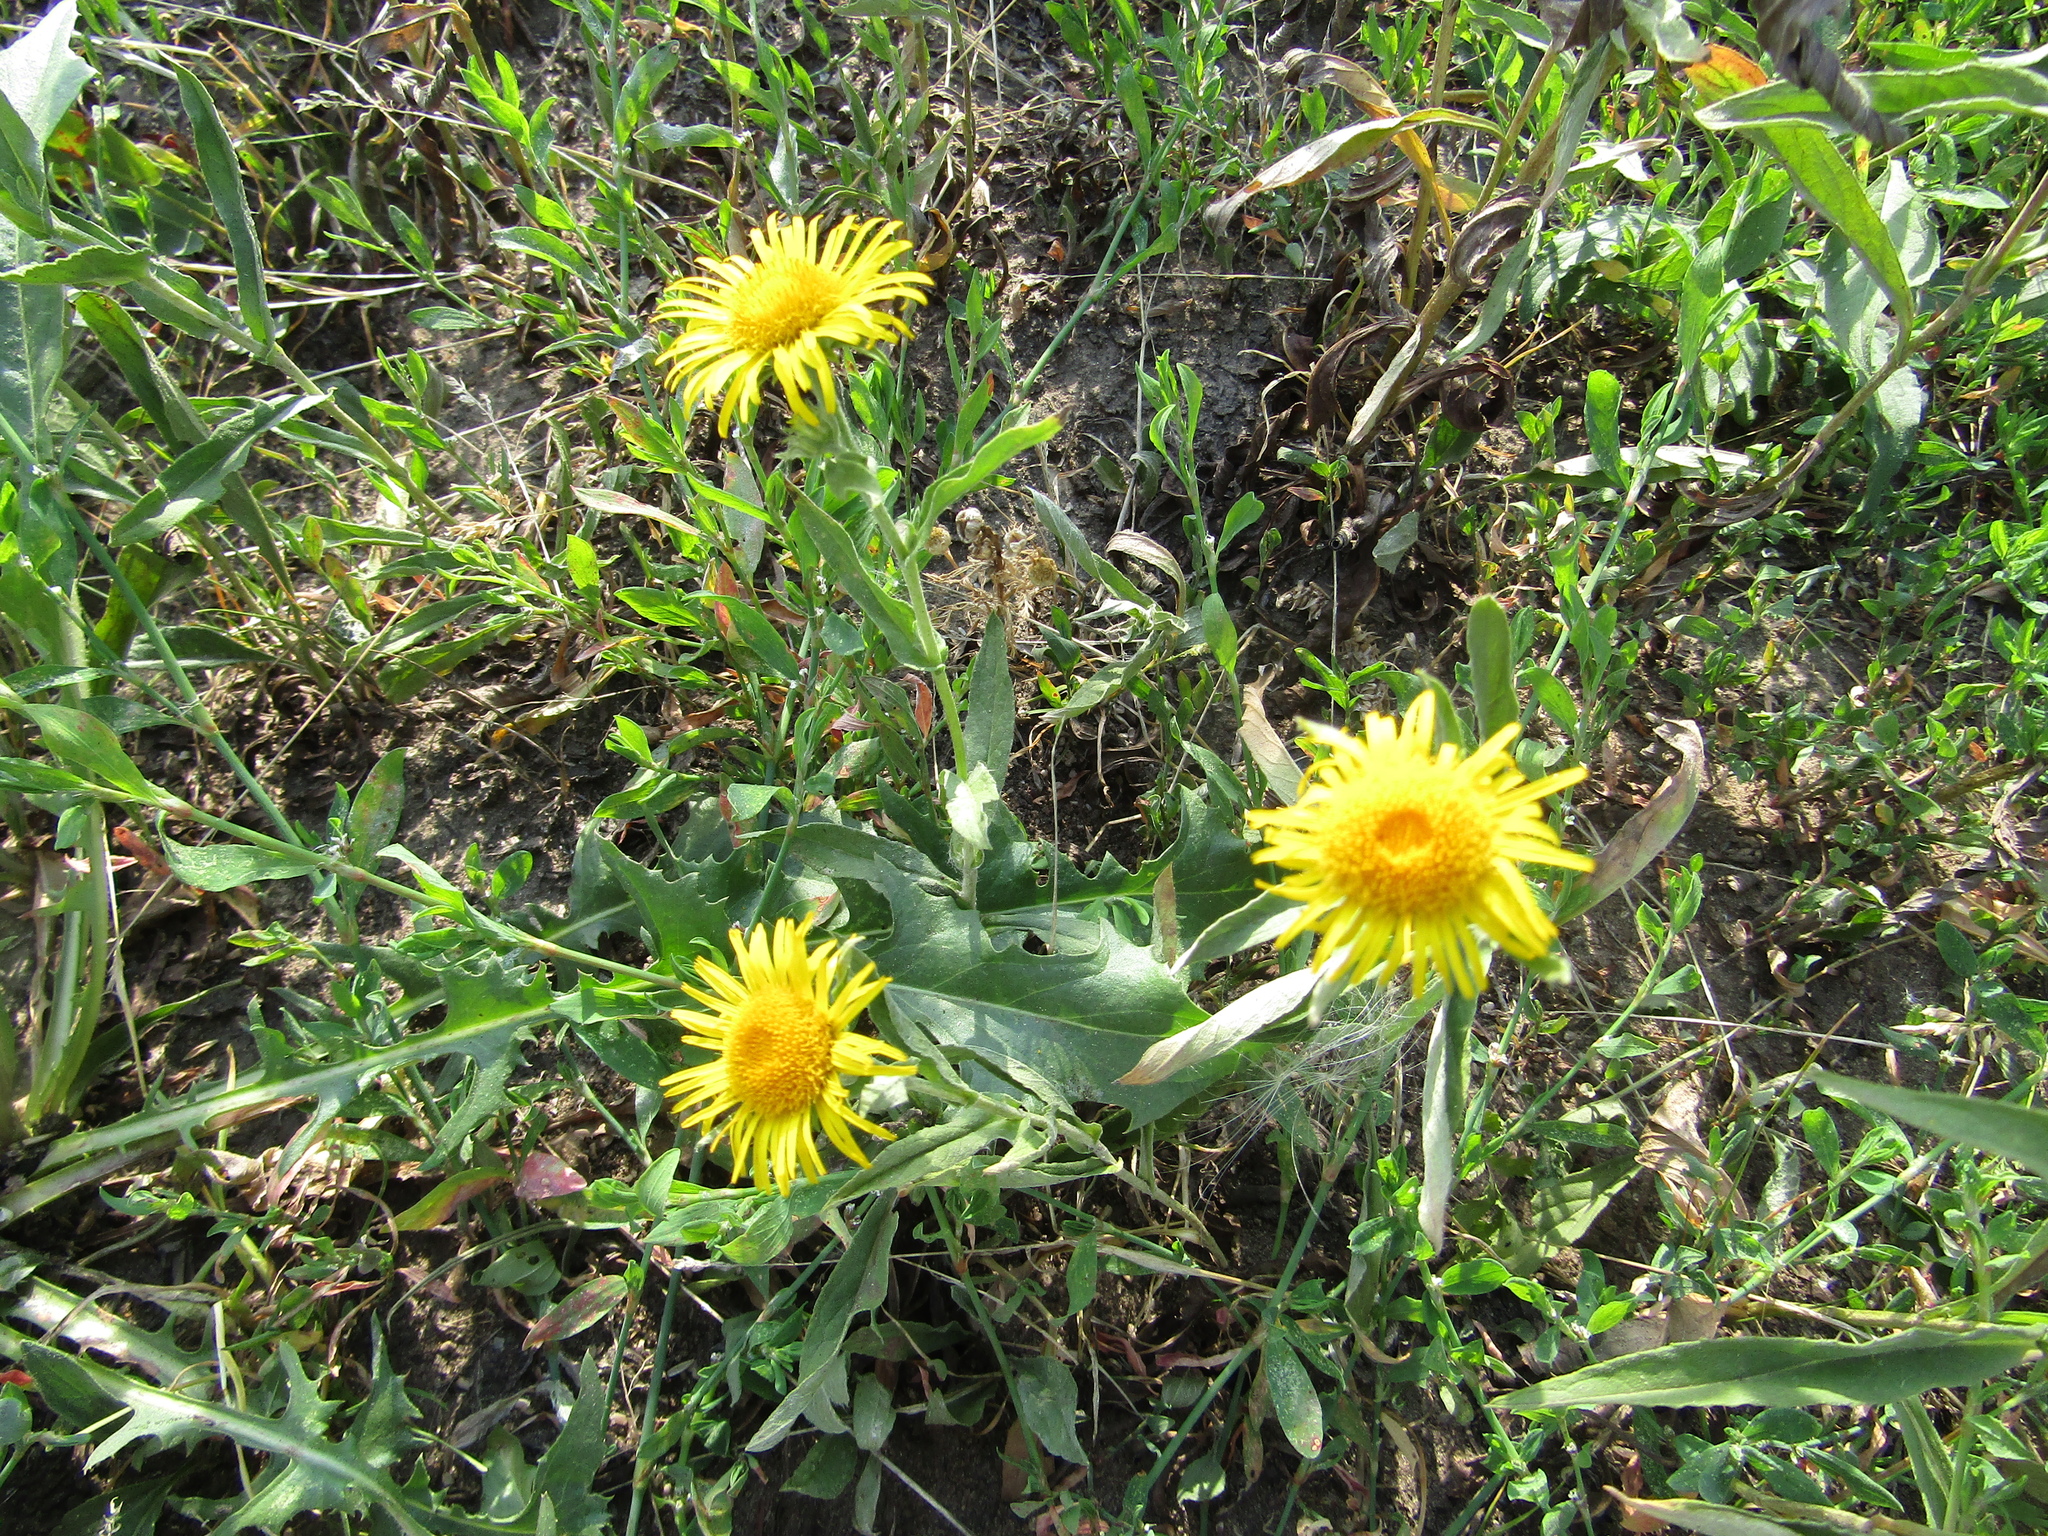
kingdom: Plantae
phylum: Tracheophyta
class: Magnoliopsida
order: Asterales
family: Asteraceae
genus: Pentanema
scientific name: Pentanema britannicum
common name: British elecampane
